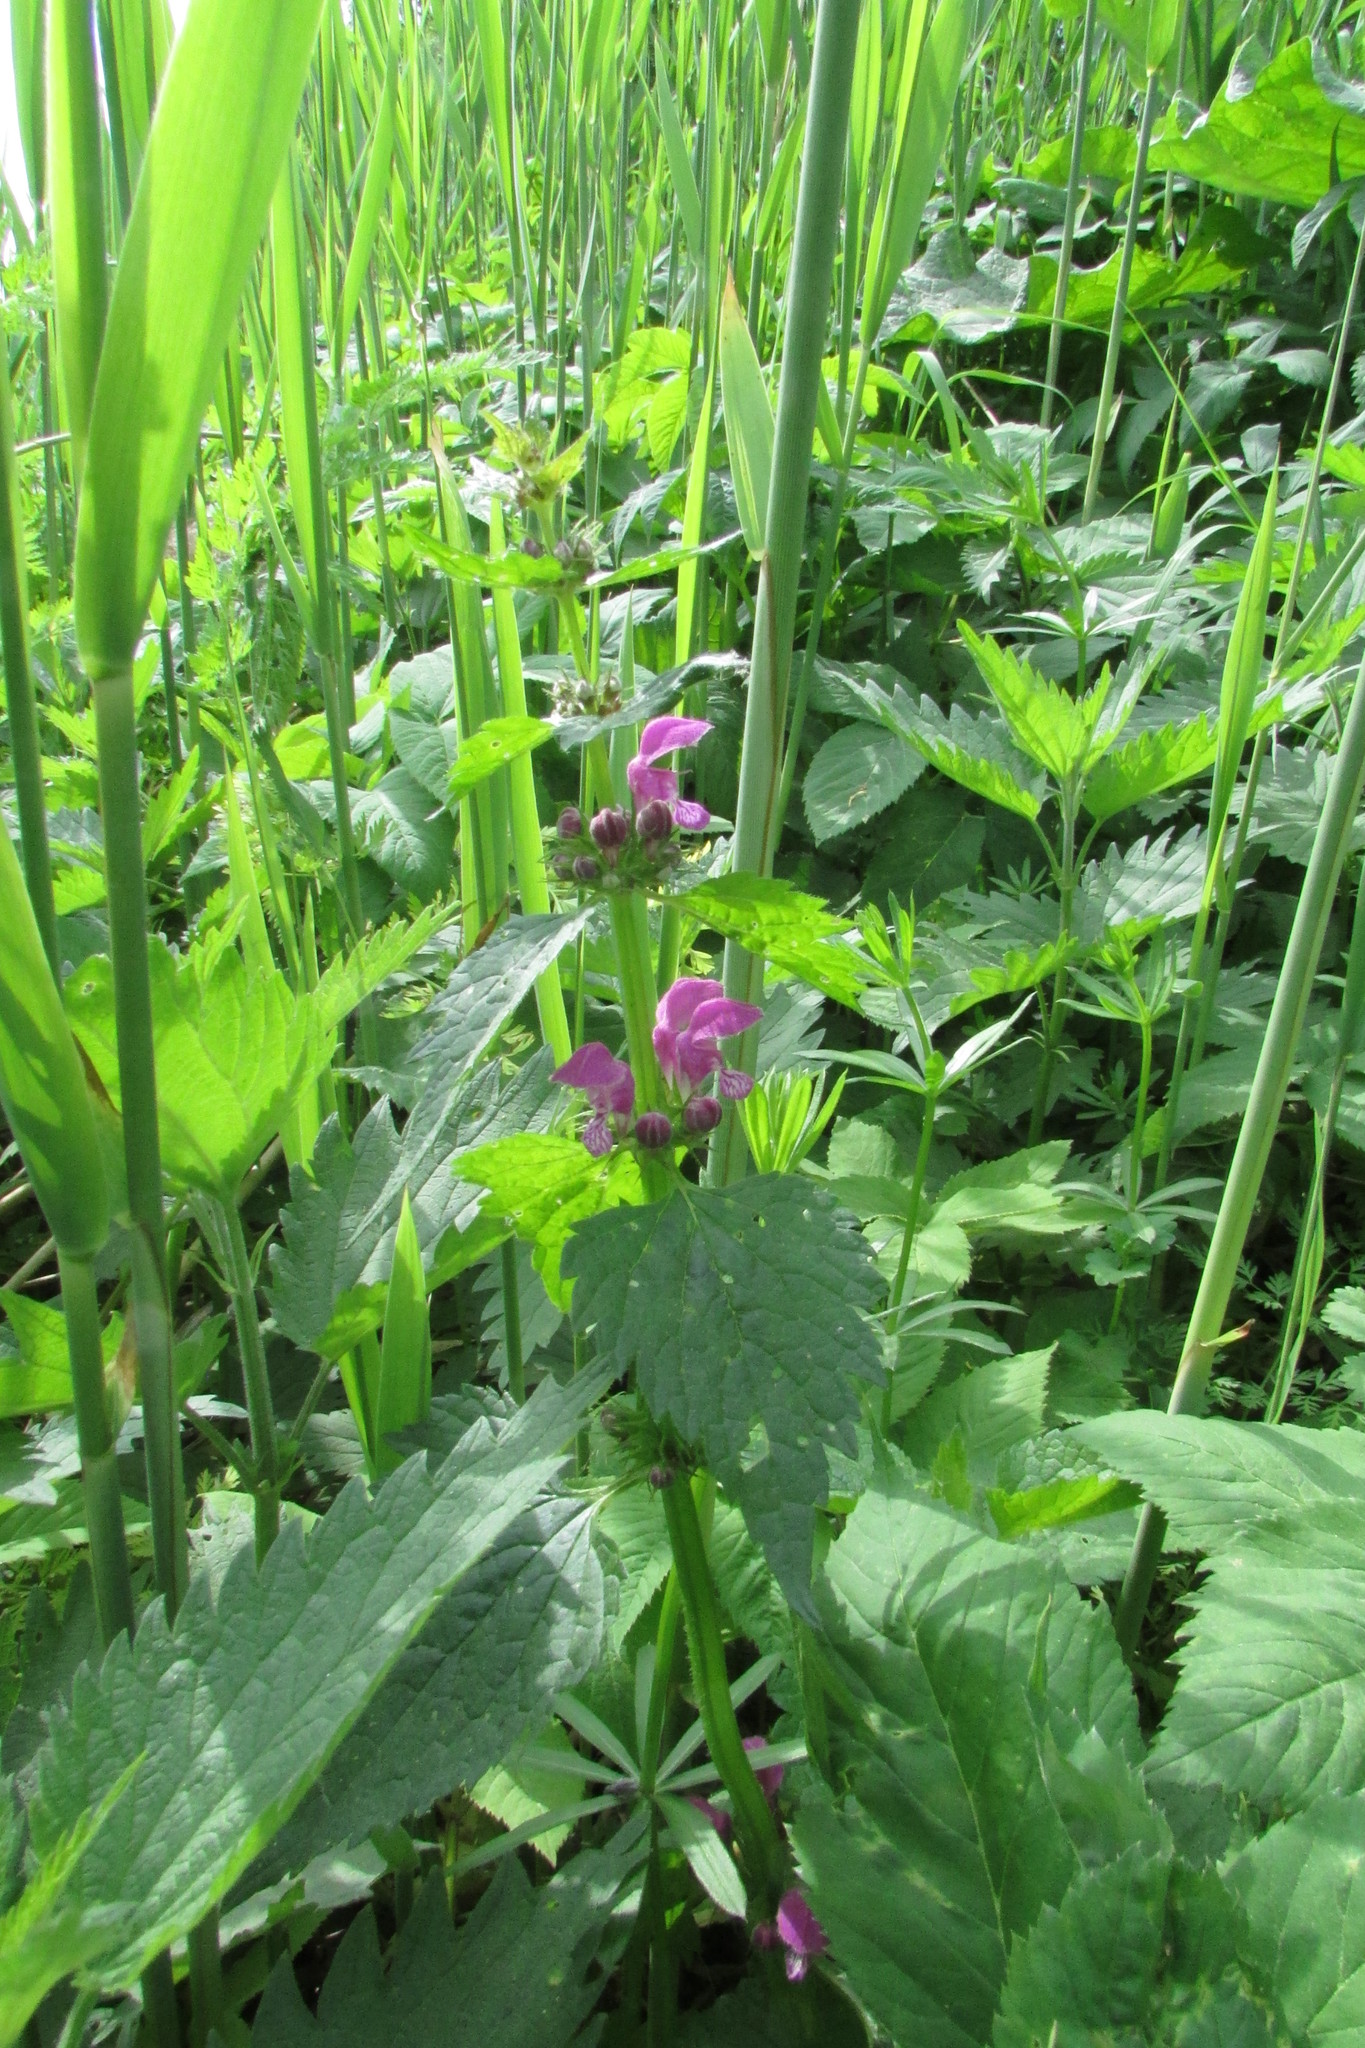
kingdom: Plantae
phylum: Tracheophyta
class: Magnoliopsida
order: Lamiales
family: Lamiaceae
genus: Lamium
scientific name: Lamium maculatum
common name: Spotted dead-nettle
